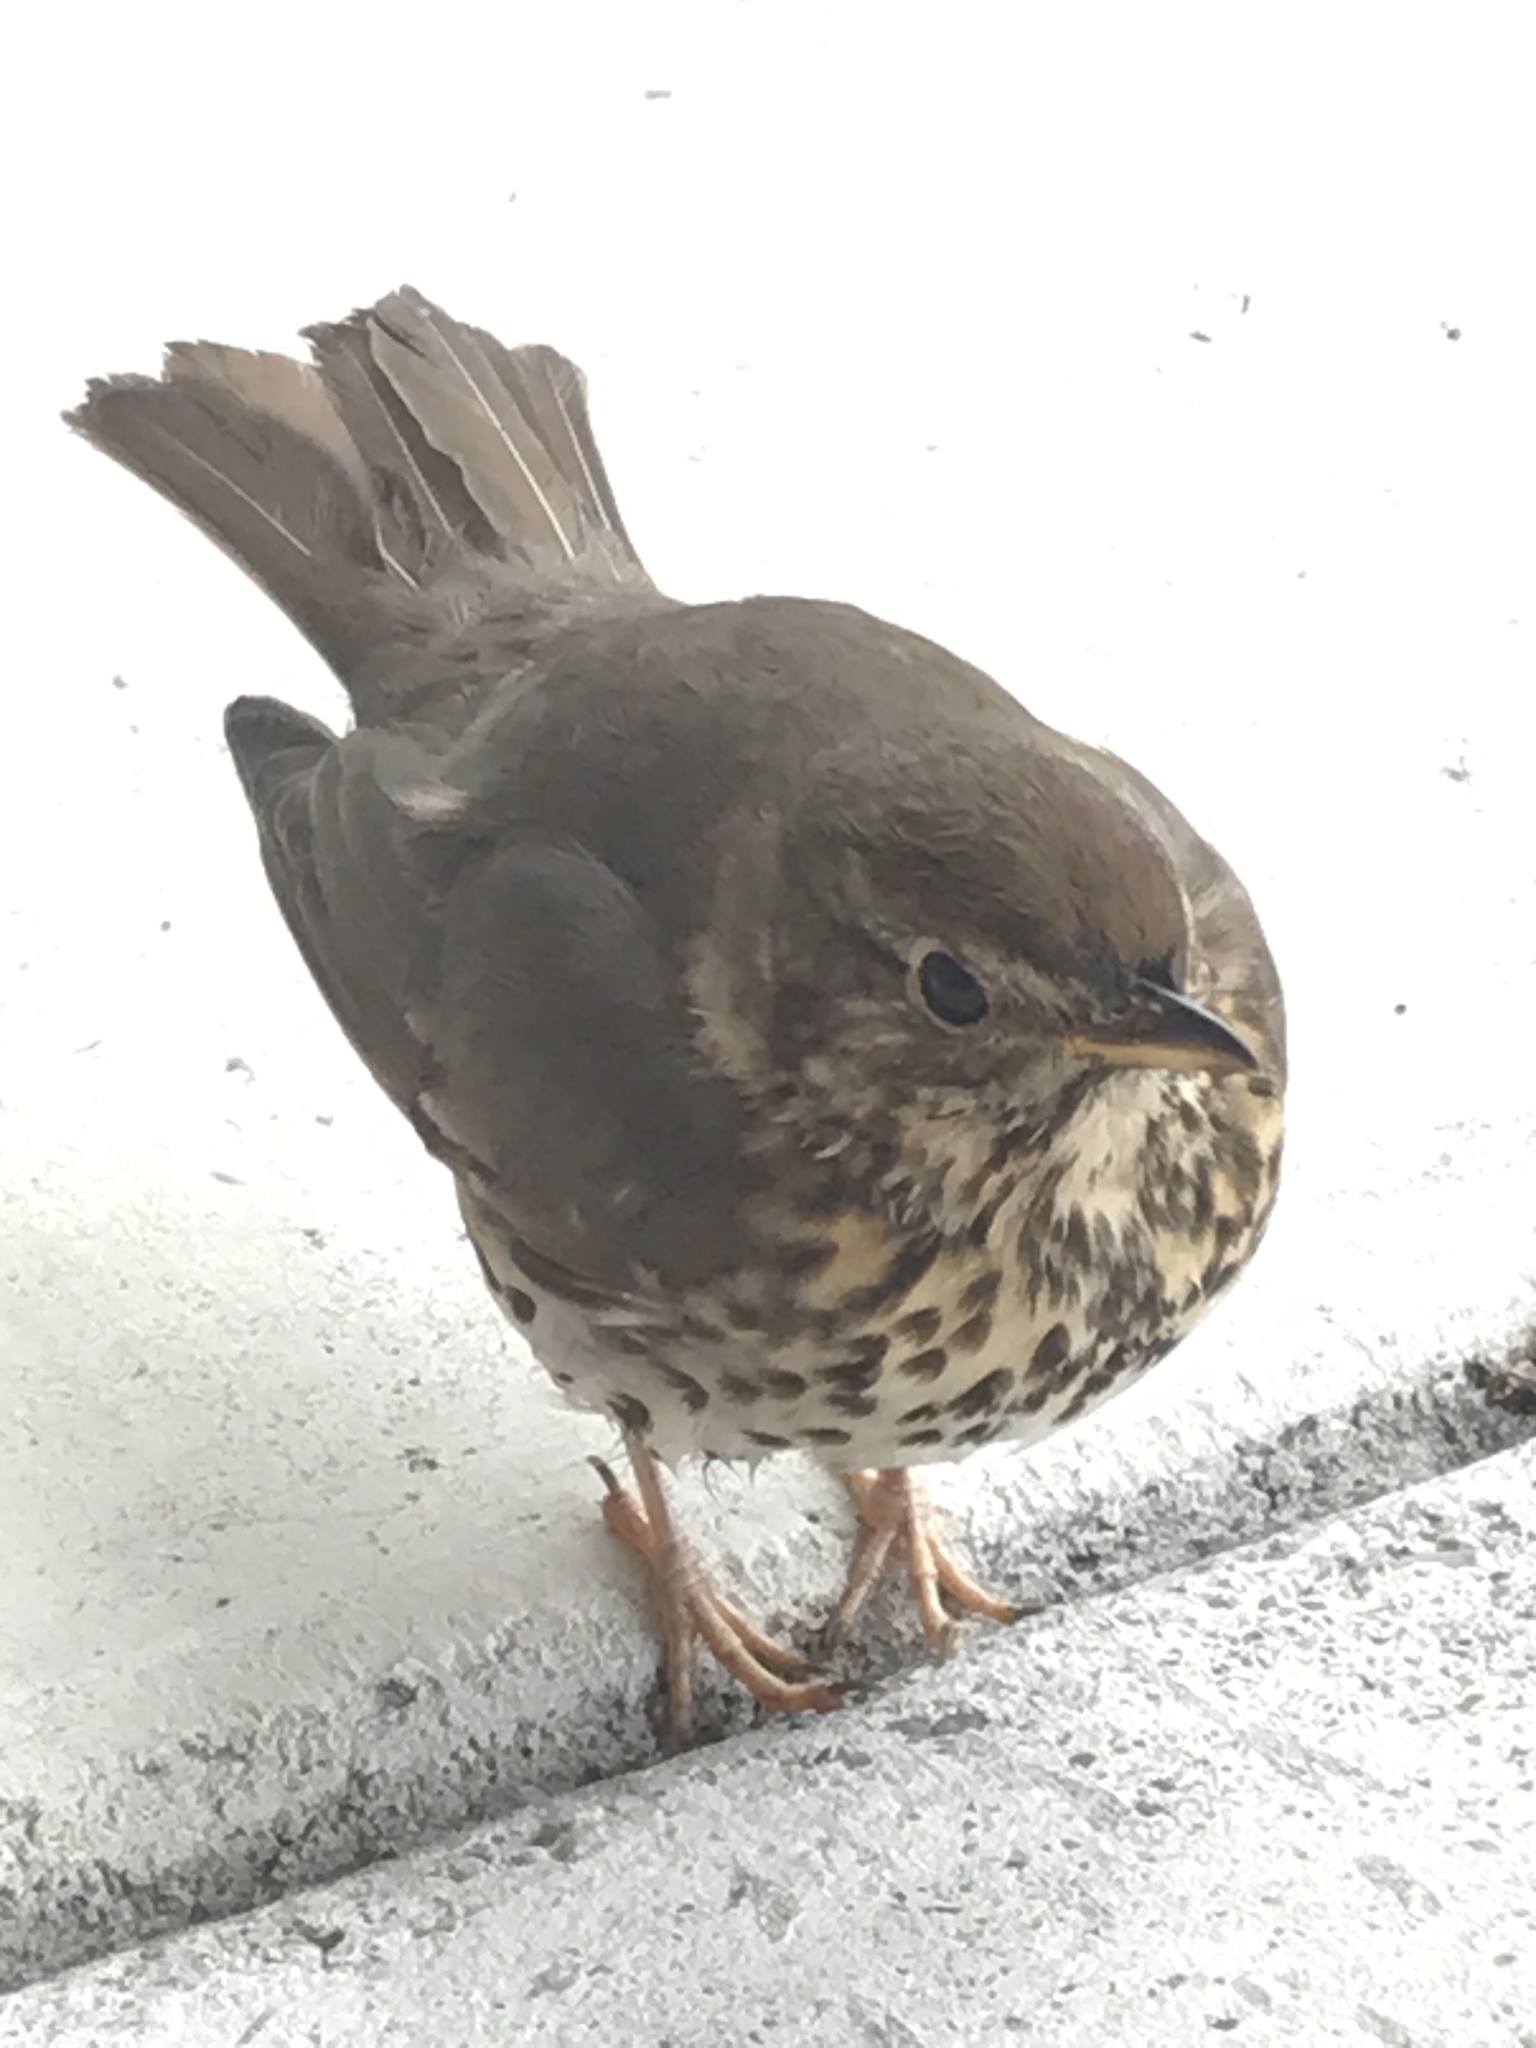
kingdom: Animalia
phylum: Chordata
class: Aves
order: Passeriformes
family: Turdidae
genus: Turdus
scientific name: Turdus philomelos
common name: Song thrush
